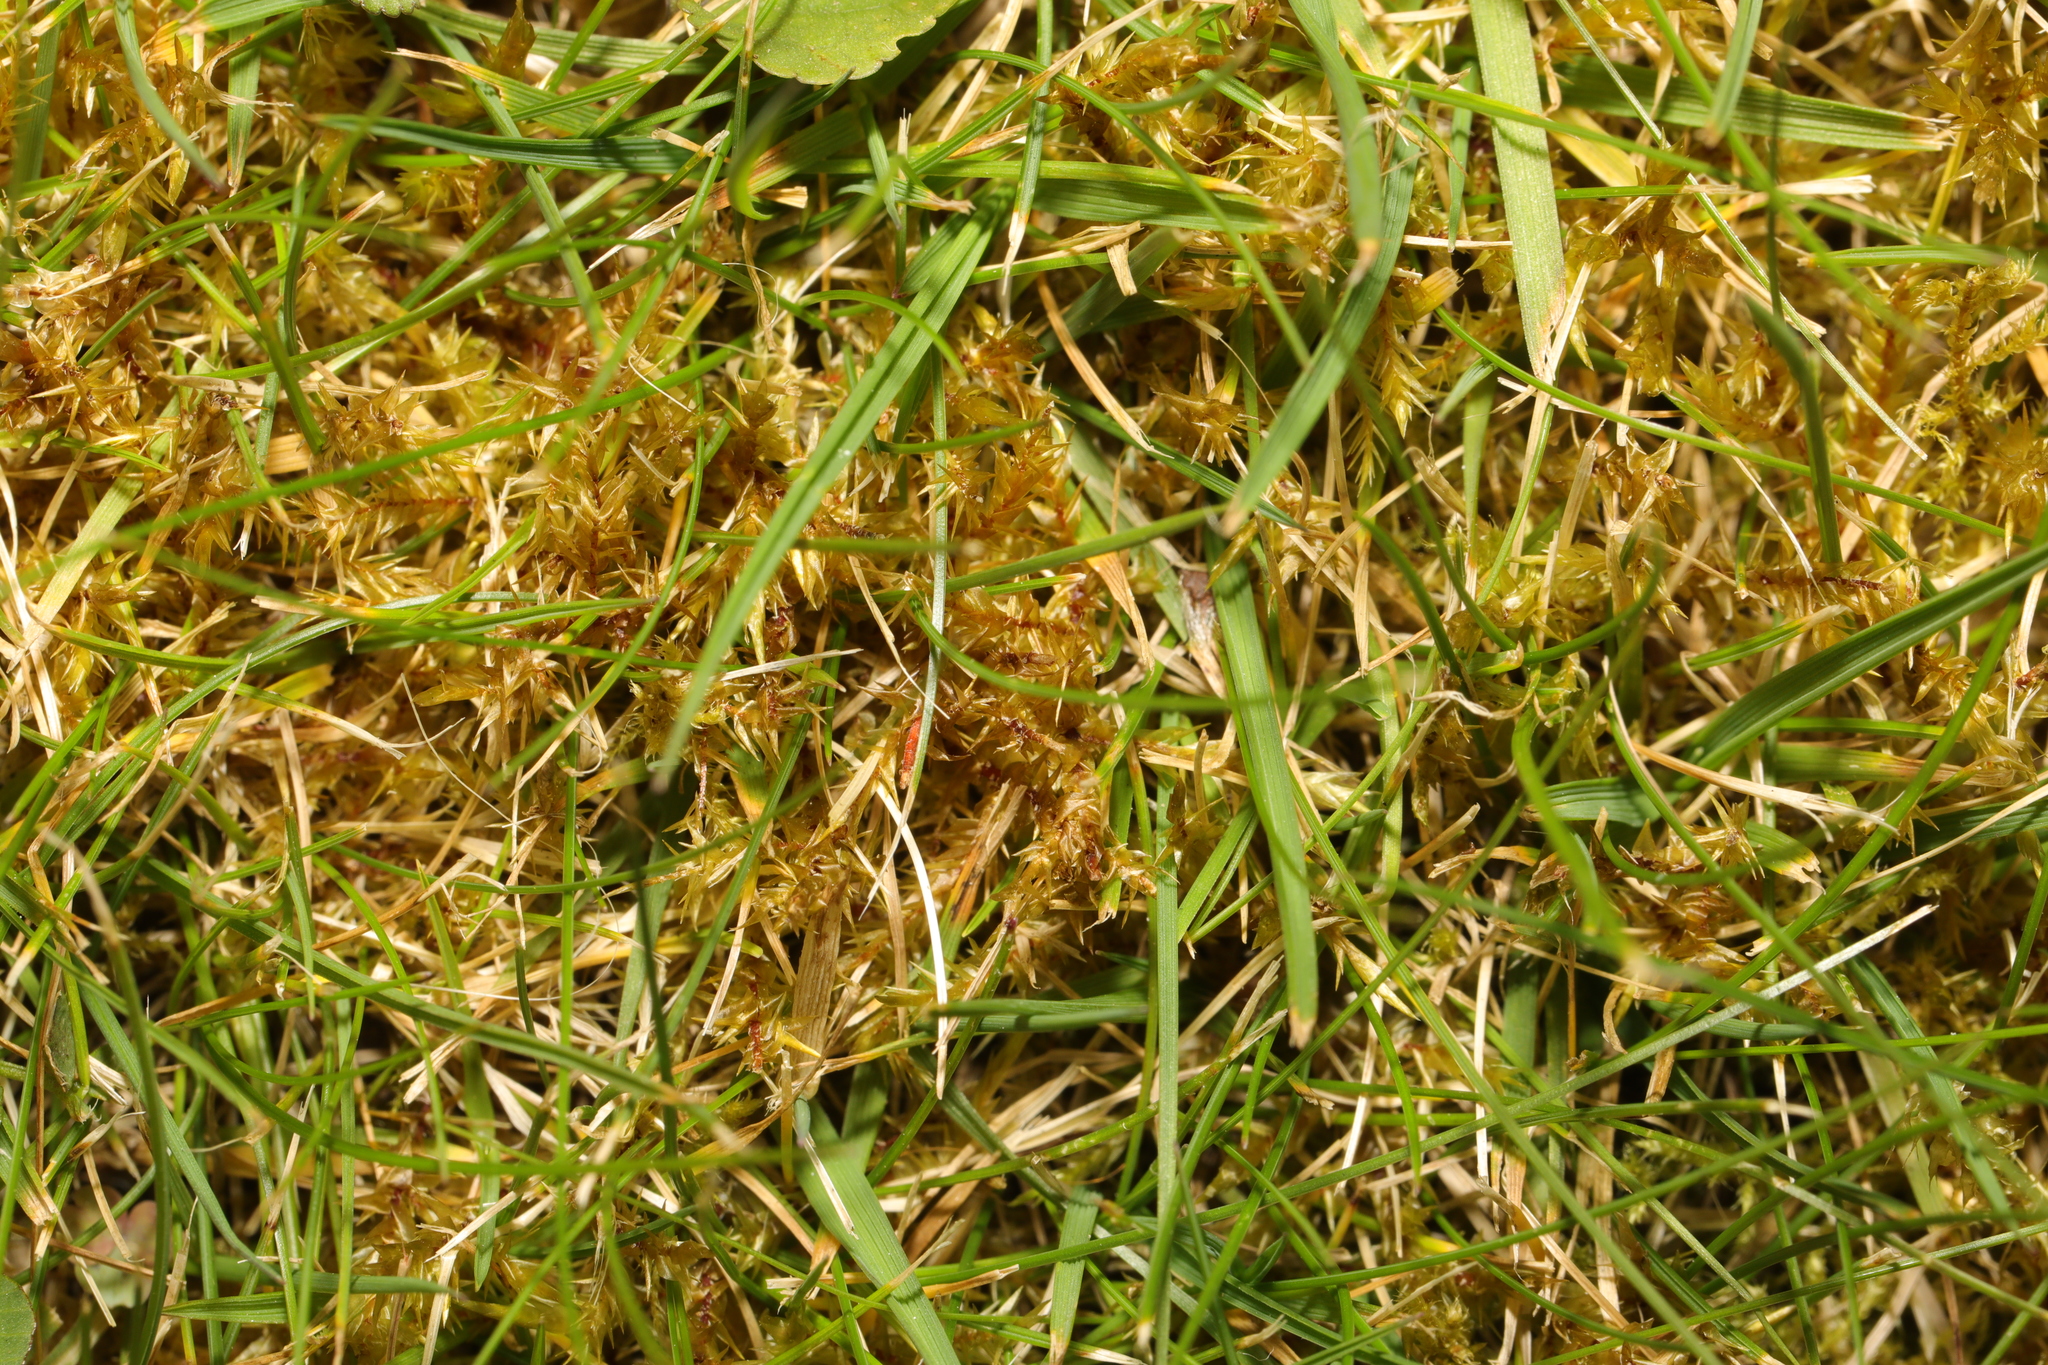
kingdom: Plantae
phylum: Bryophyta
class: Bryopsida
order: Hypnales
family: Hylocomiaceae
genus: Rhytidiadelphus
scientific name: Rhytidiadelphus squarrosus
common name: Springy turf-moss
